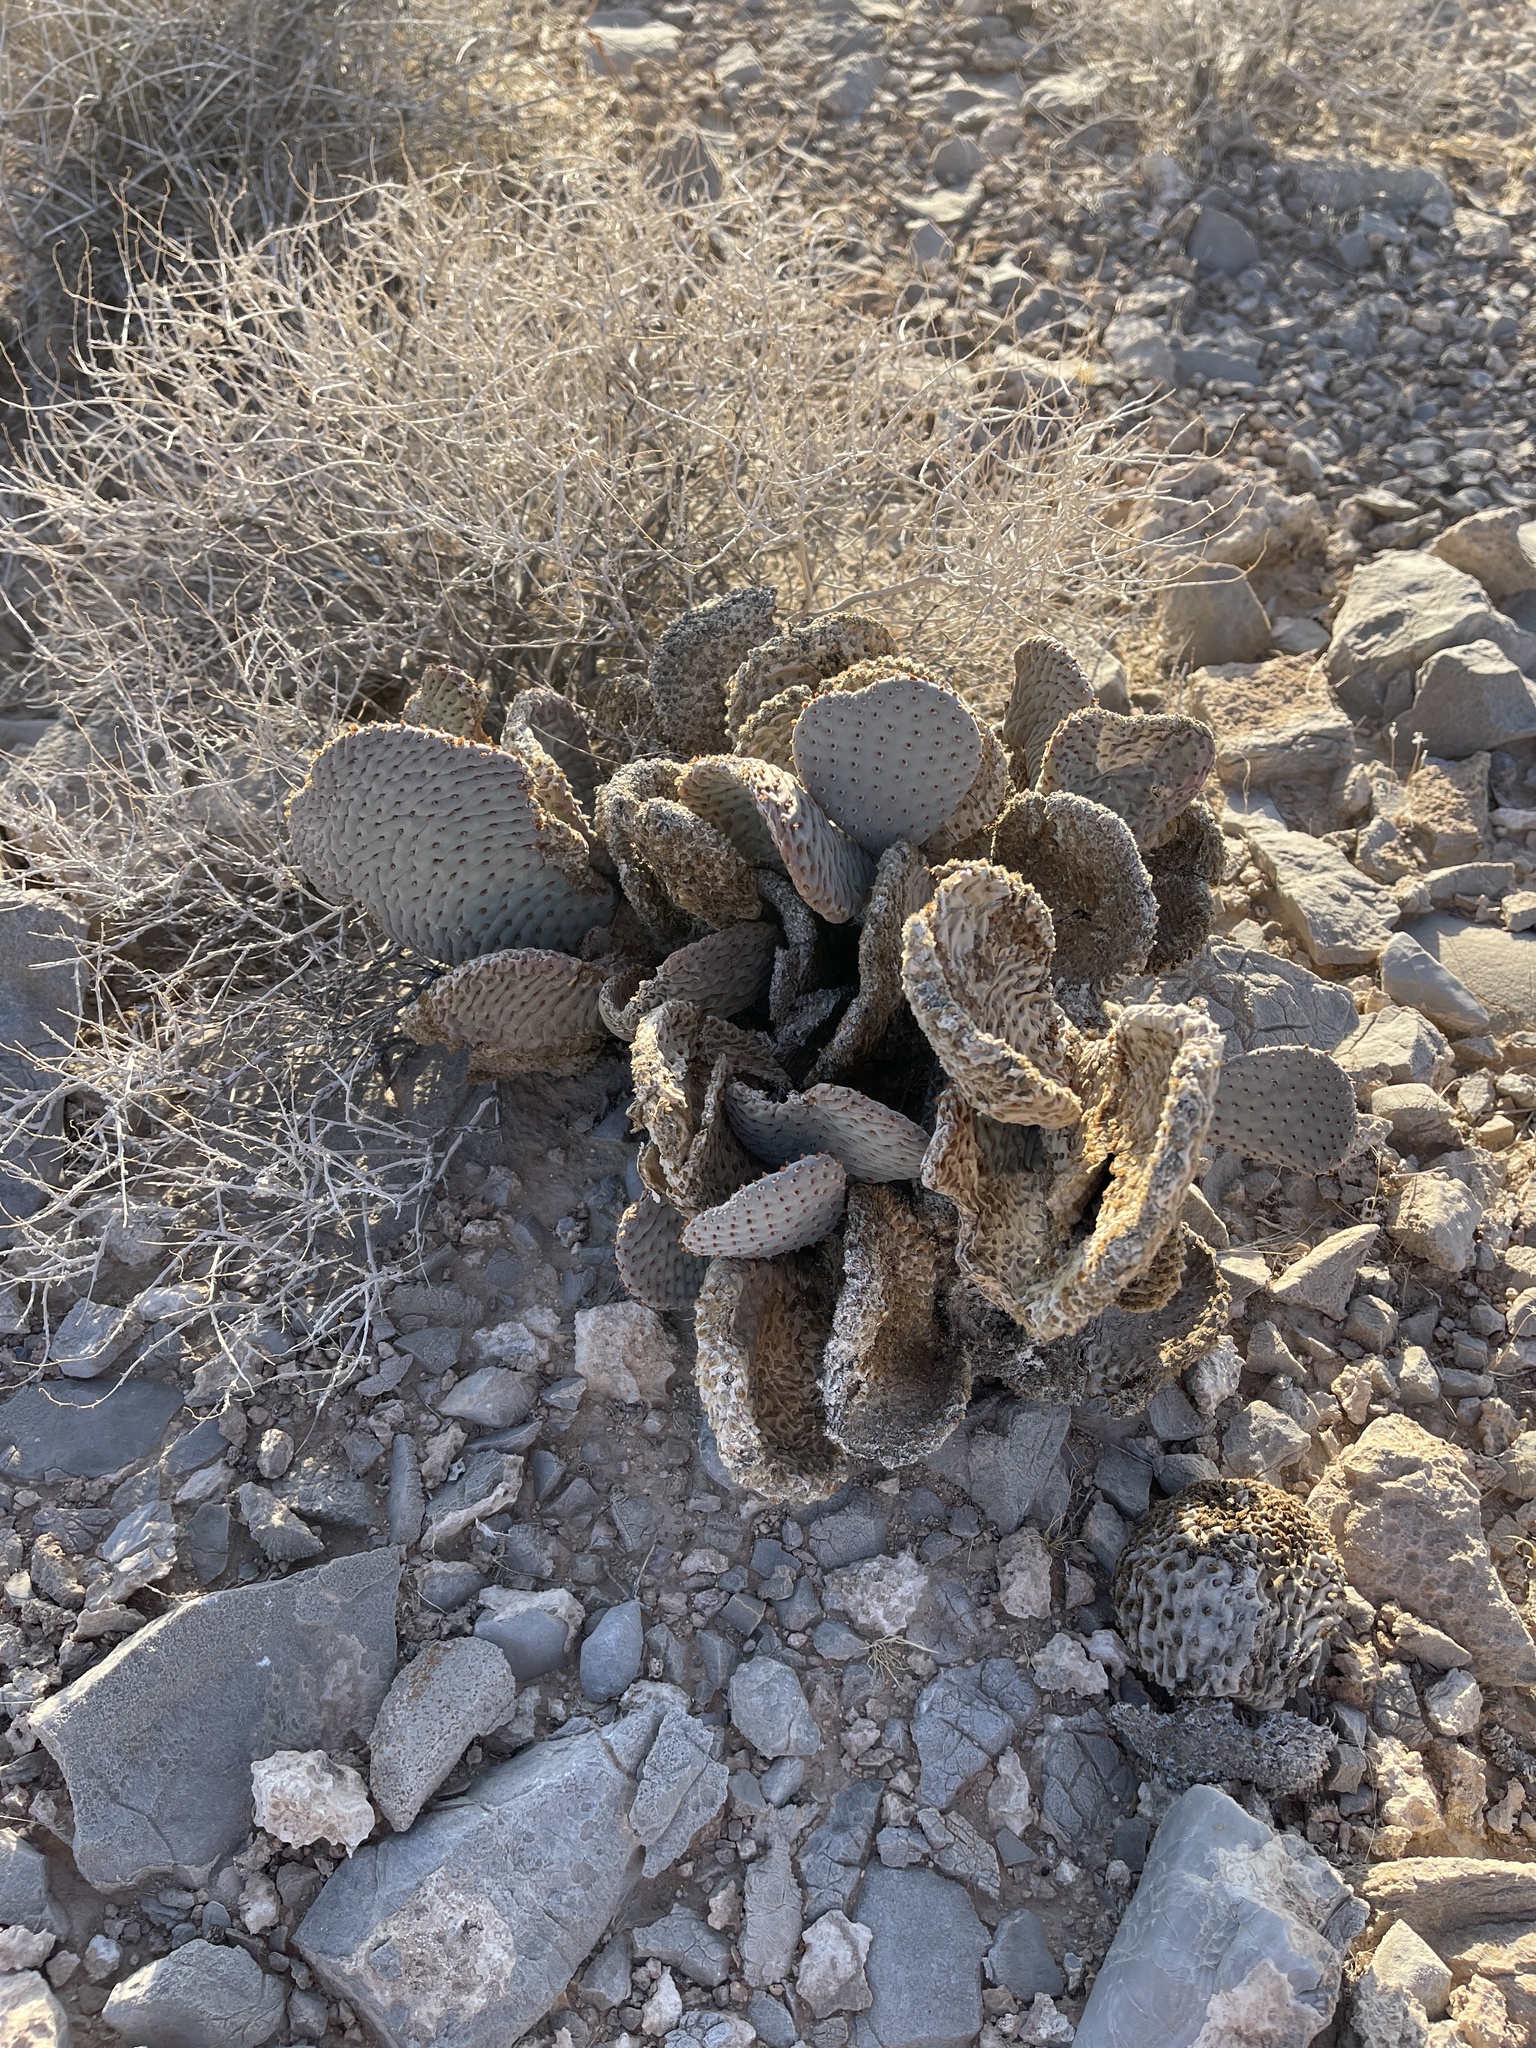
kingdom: Plantae
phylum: Tracheophyta
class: Magnoliopsida
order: Caryophyllales
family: Cactaceae
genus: Opuntia
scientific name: Opuntia basilaris
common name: Beavertail prickly-pear
